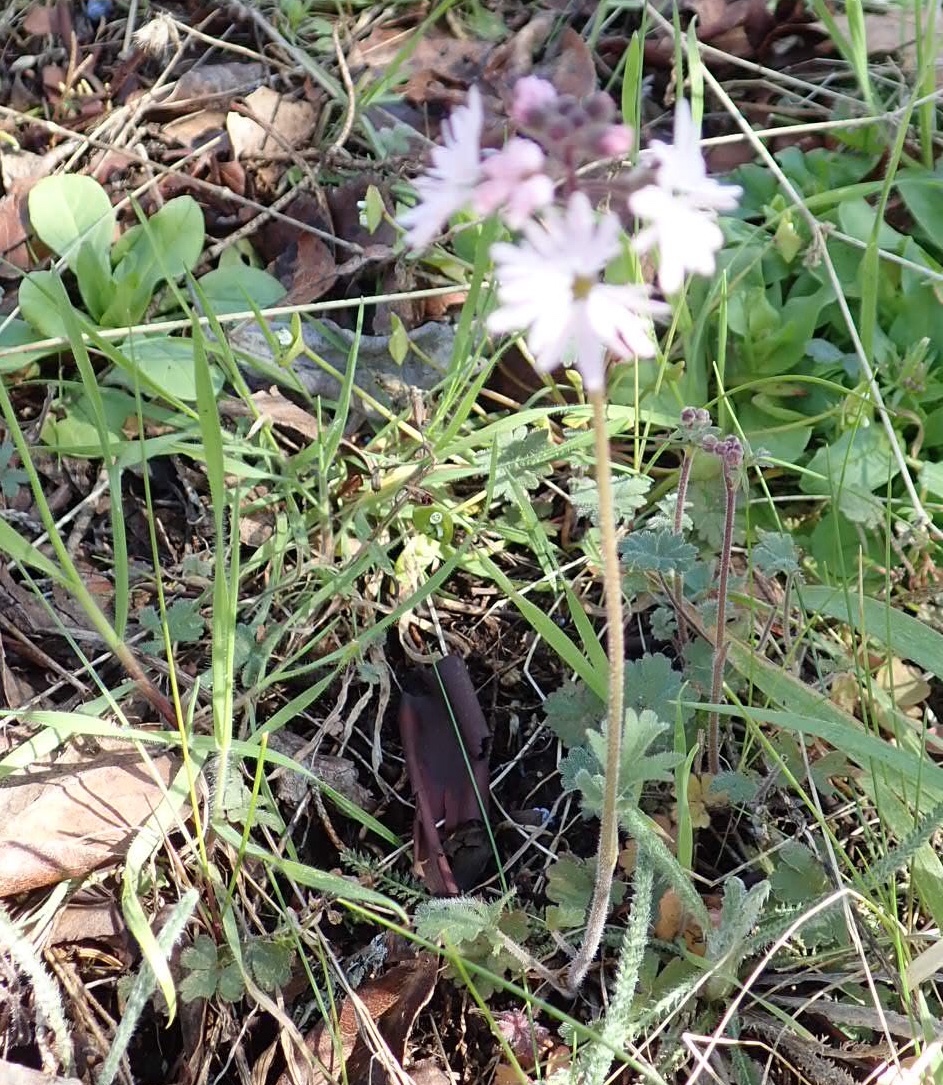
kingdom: Plantae
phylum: Tracheophyta
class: Magnoliopsida
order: Saxifragales
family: Saxifragaceae
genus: Lithophragma
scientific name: Lithophragma parviflorum
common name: Small-flowered fringe-cup
